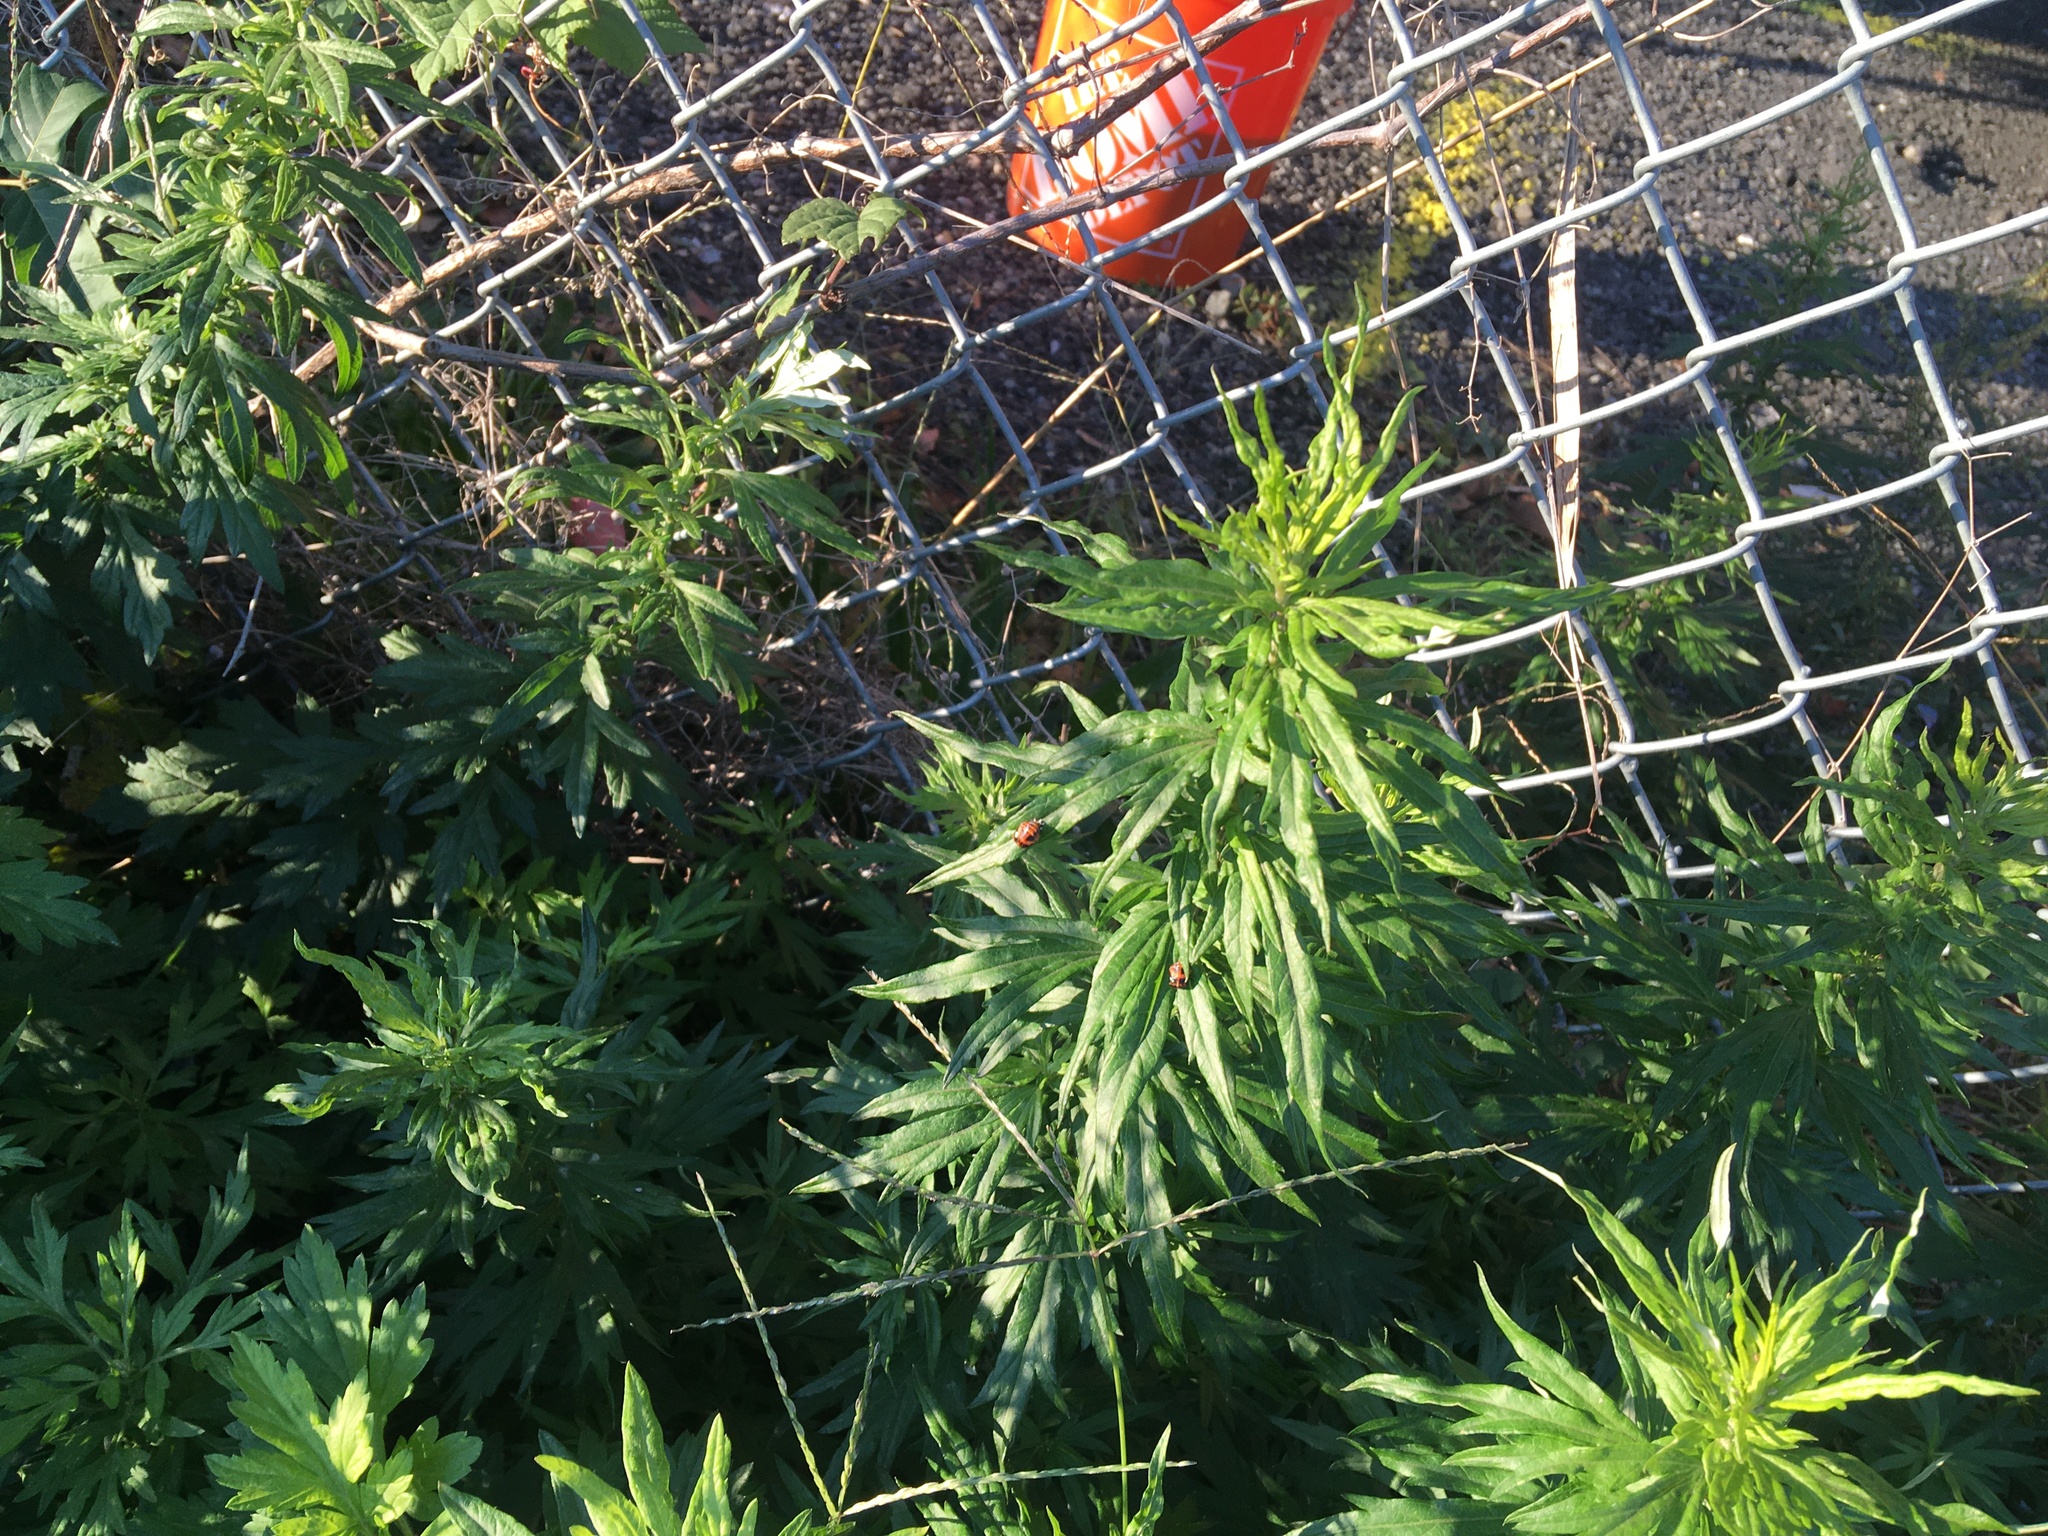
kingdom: Plantae
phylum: Tracheophyta
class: Magnoliopsida
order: Asterales
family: Asteraceae
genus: Artemisia
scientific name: Artemisia vulgaris
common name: Mugwort
